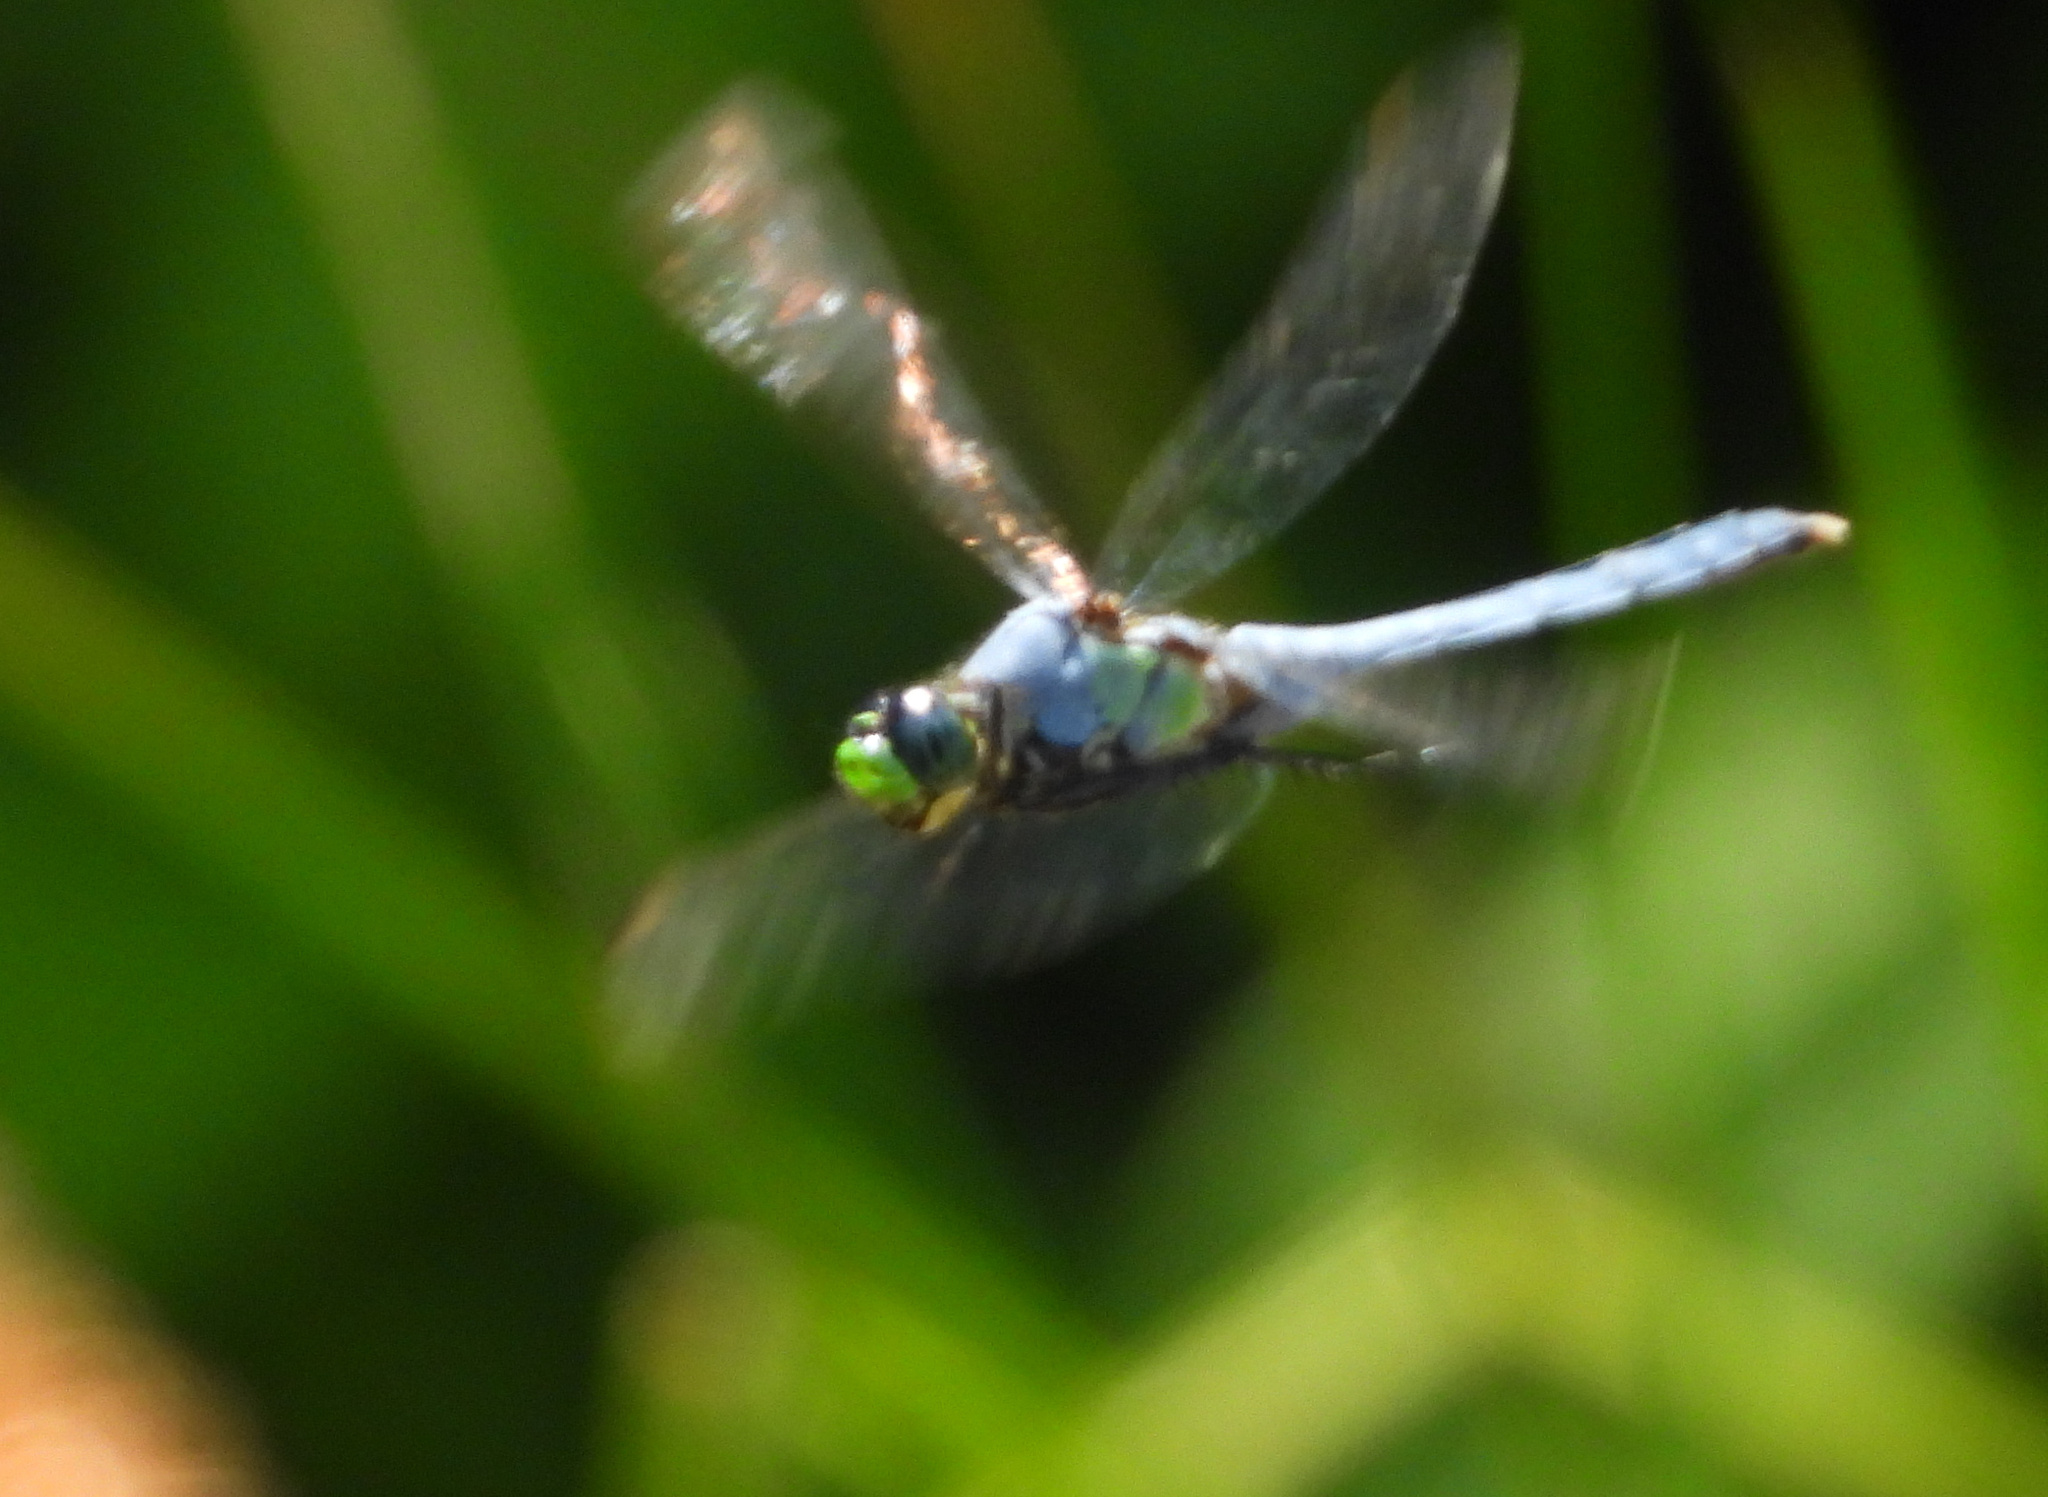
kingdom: Animalia
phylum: Arthropoda
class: Insecta
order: Odonata
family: Libellulidae
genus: Erythemis
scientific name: Erythemis simplicicollis
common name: Eastern pondhawk
